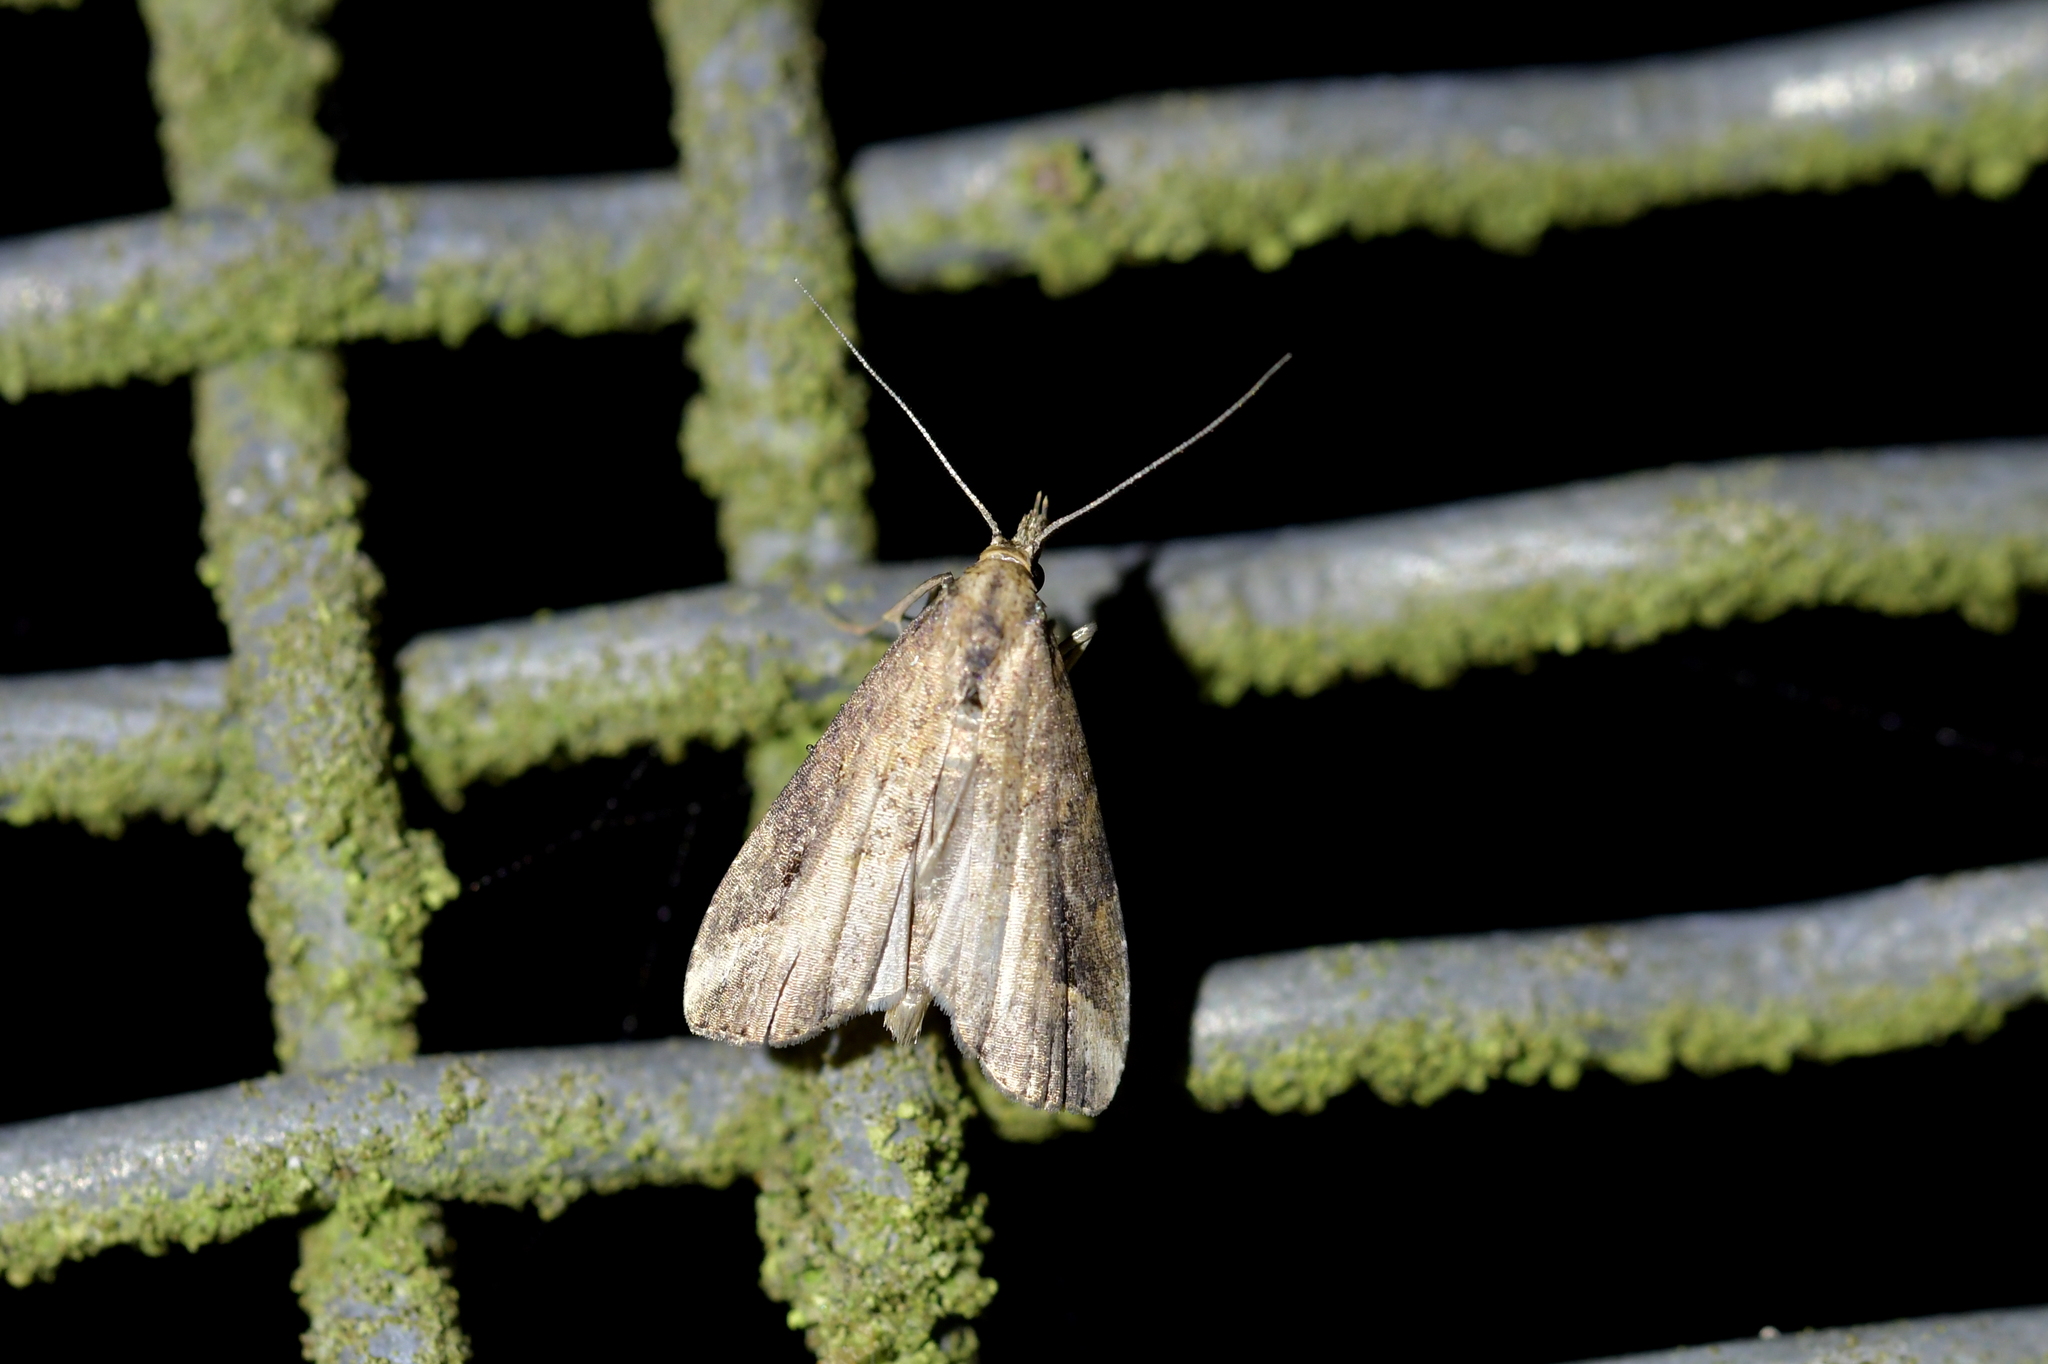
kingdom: Animalia
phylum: Arthropoda
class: Insecta
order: Lepidoptera
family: Erebidae
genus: Schrankia
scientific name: Schrankia costaestrigalis
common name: Pinion-streaked snout
